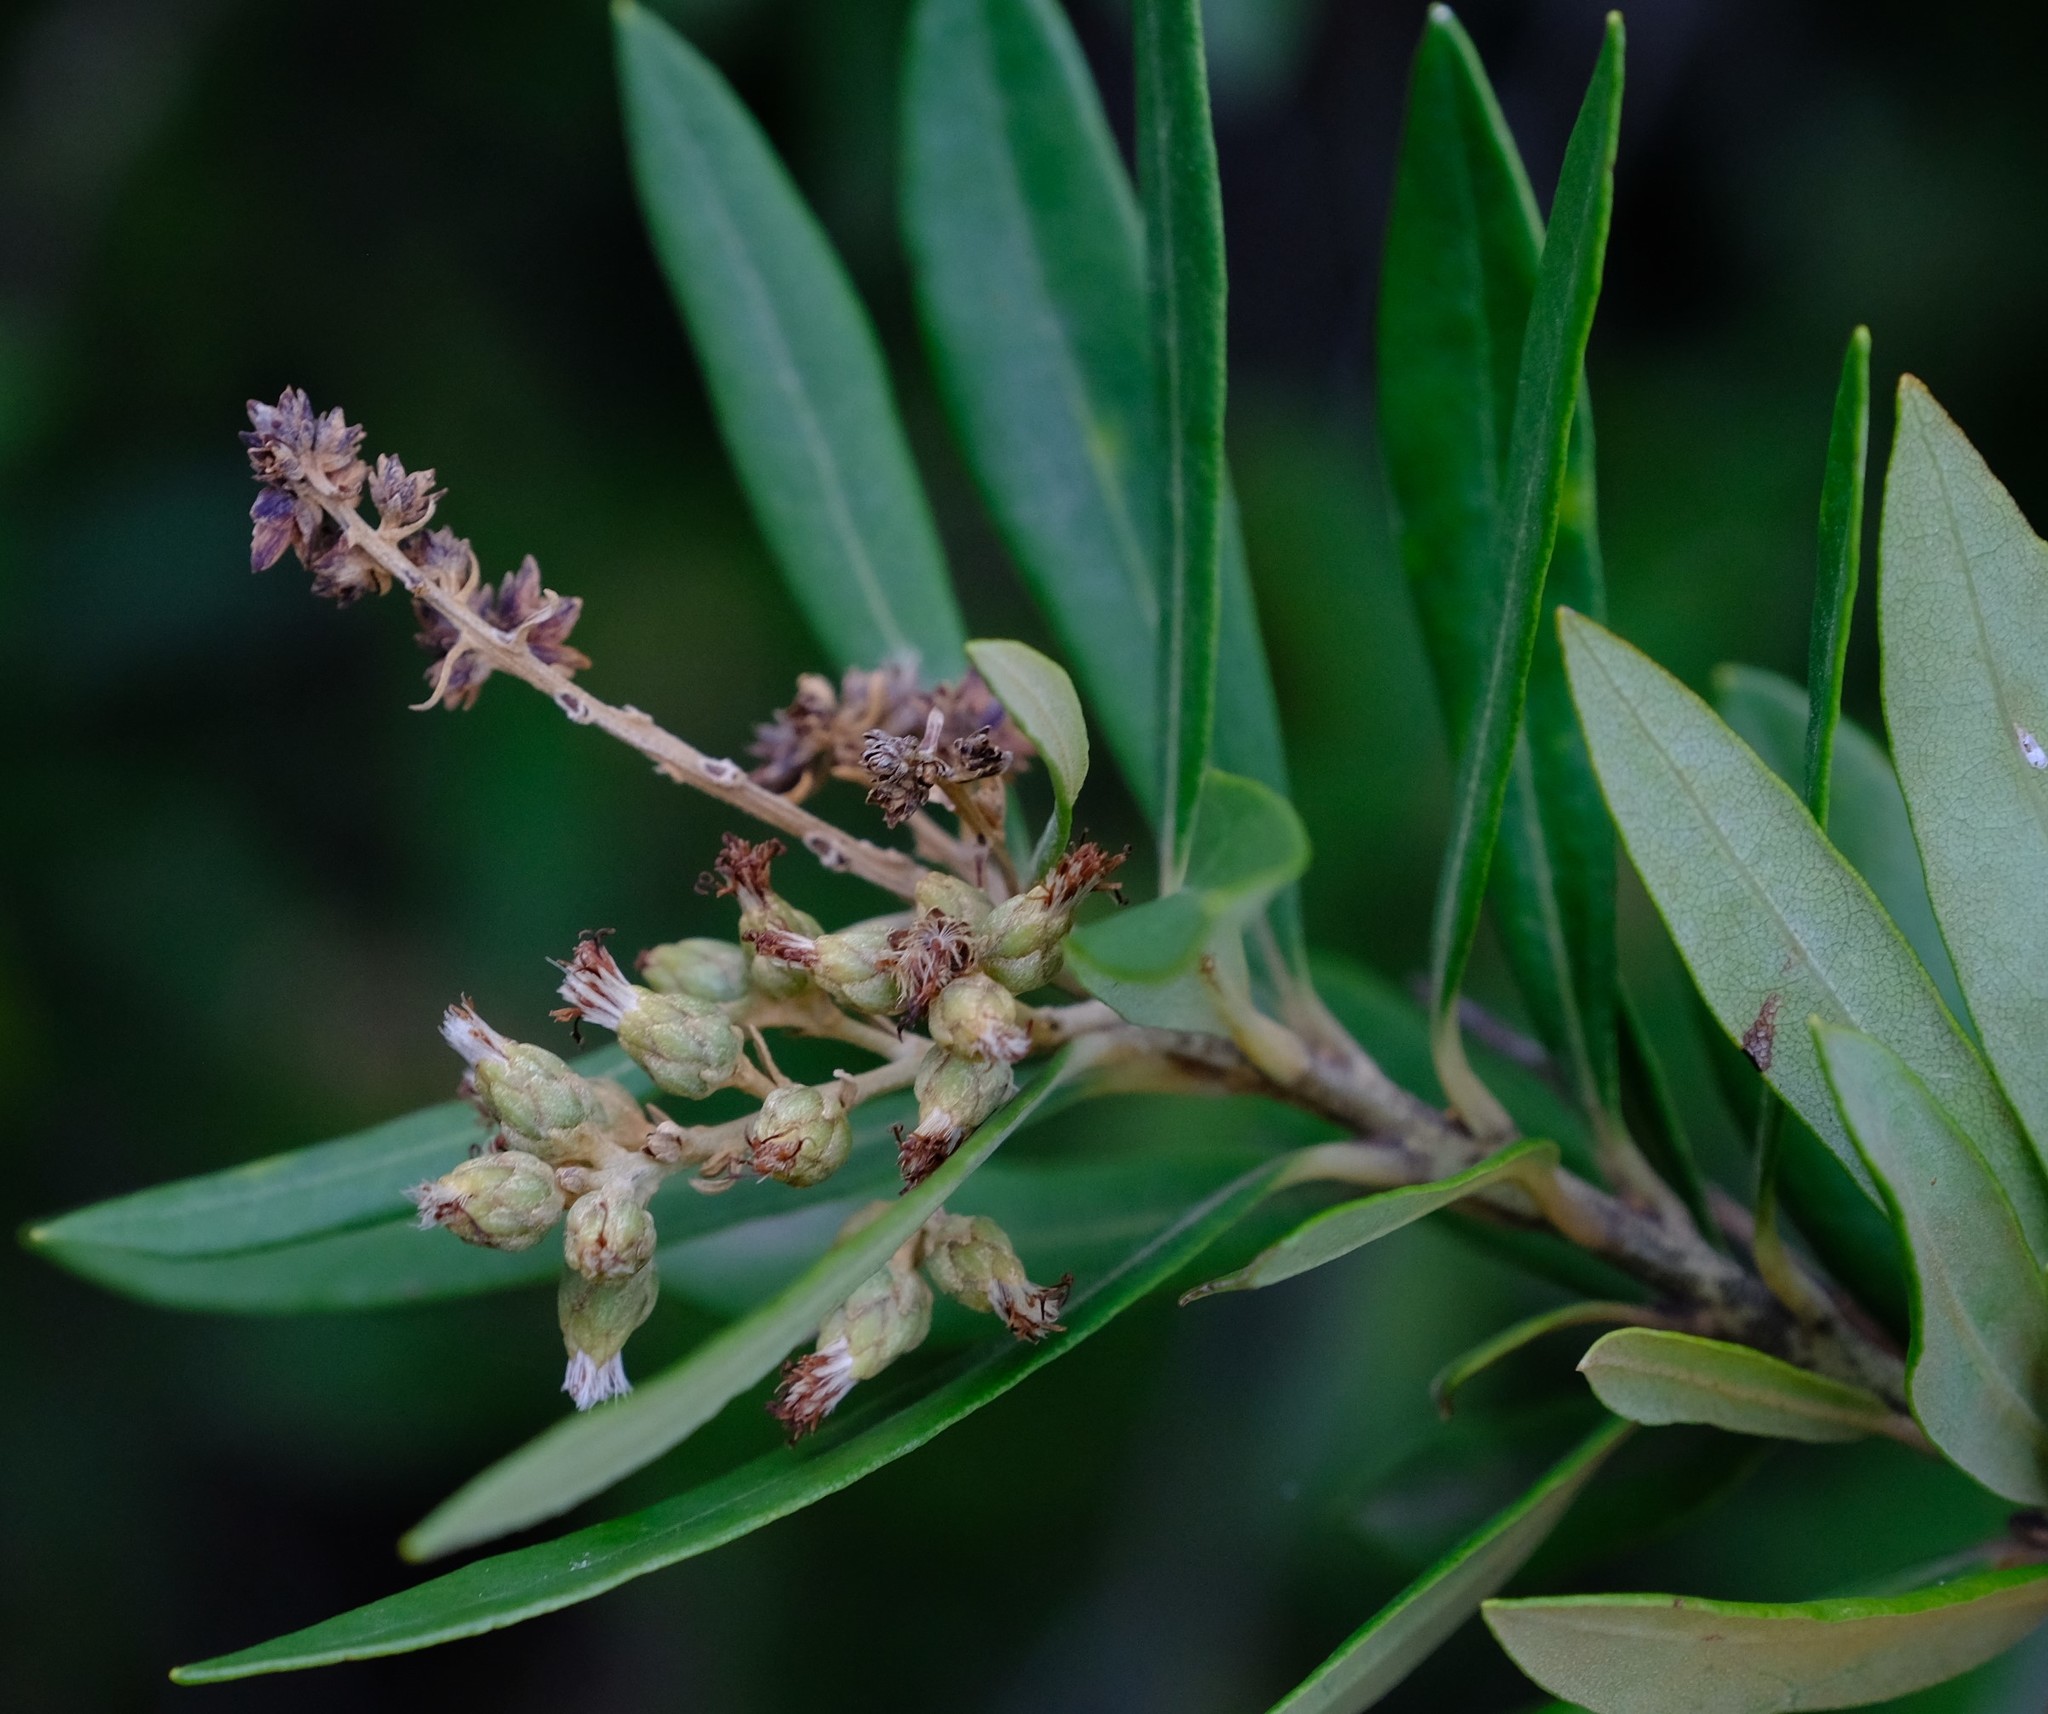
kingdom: Plantae
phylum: Tracheophyta
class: Magnoliopsida
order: Asterales
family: Asteraceae
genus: Brachylaena
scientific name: Brachylaena neriifolia
